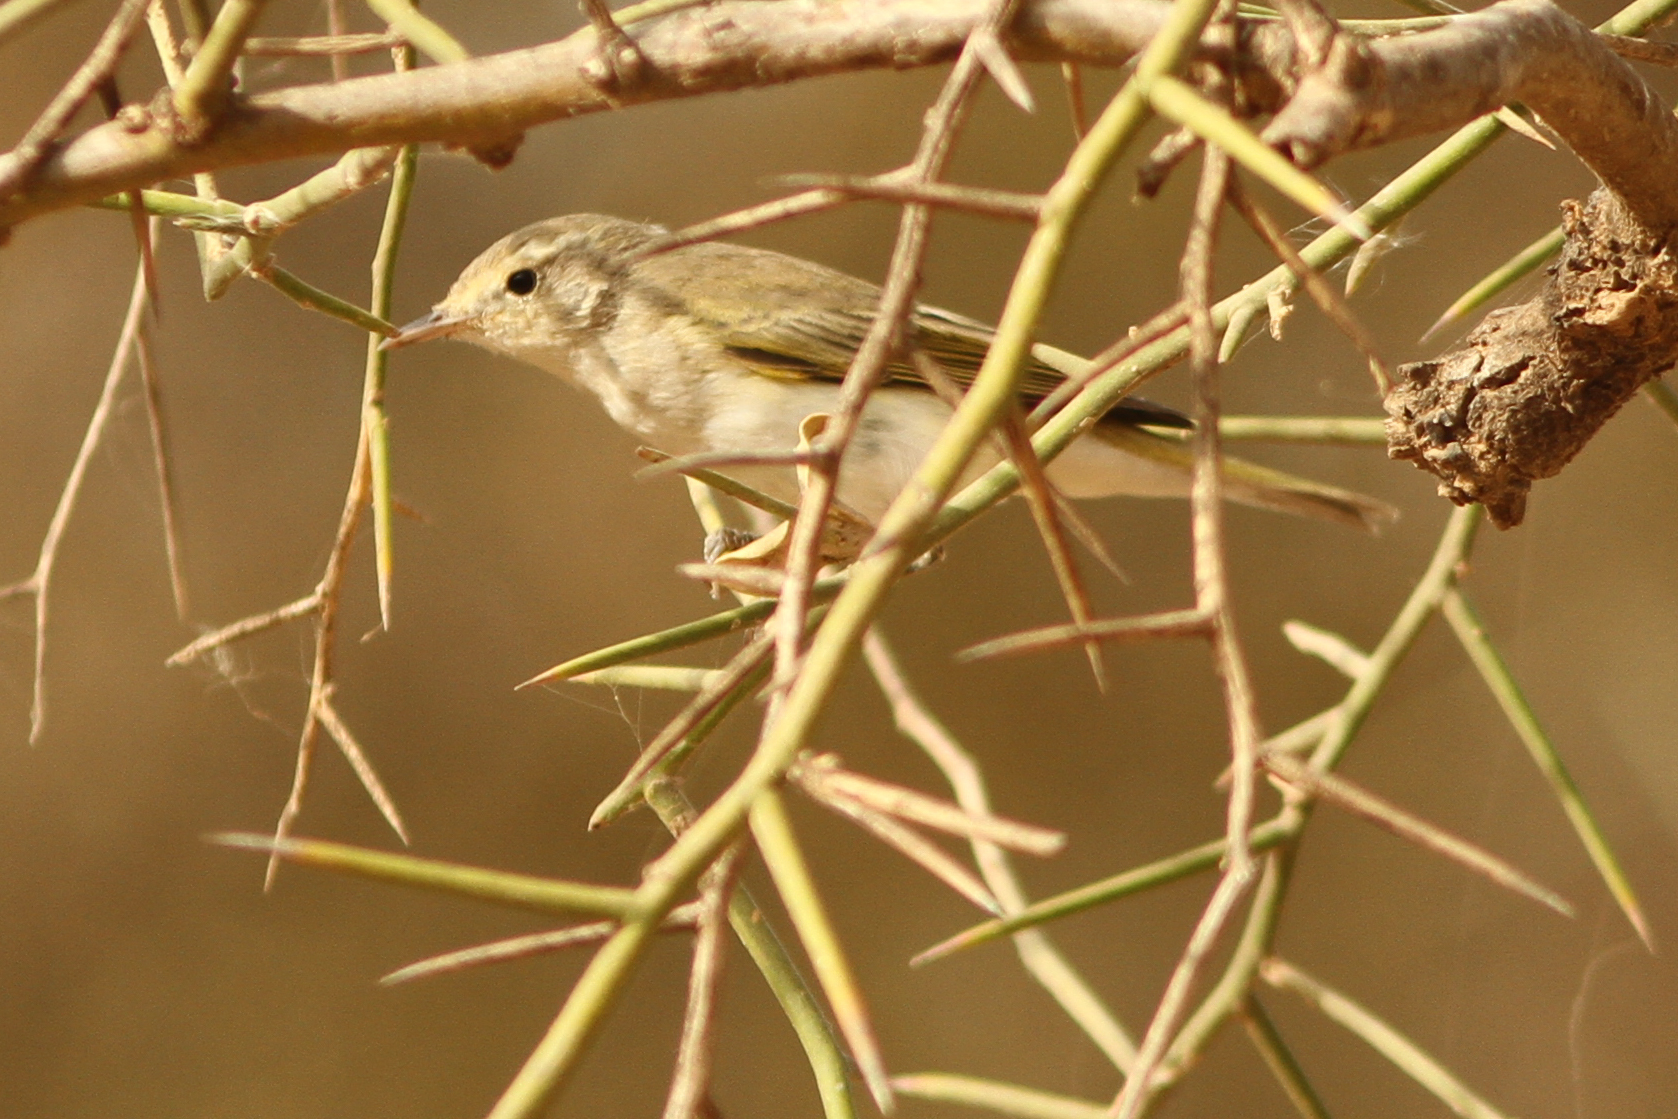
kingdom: Animalia
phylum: Chordata
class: Aves
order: Passeriformes
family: Phylloscopidae
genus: Phylloscopus
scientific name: Phylloscopus bonelli
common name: Western bonelli's warbler
